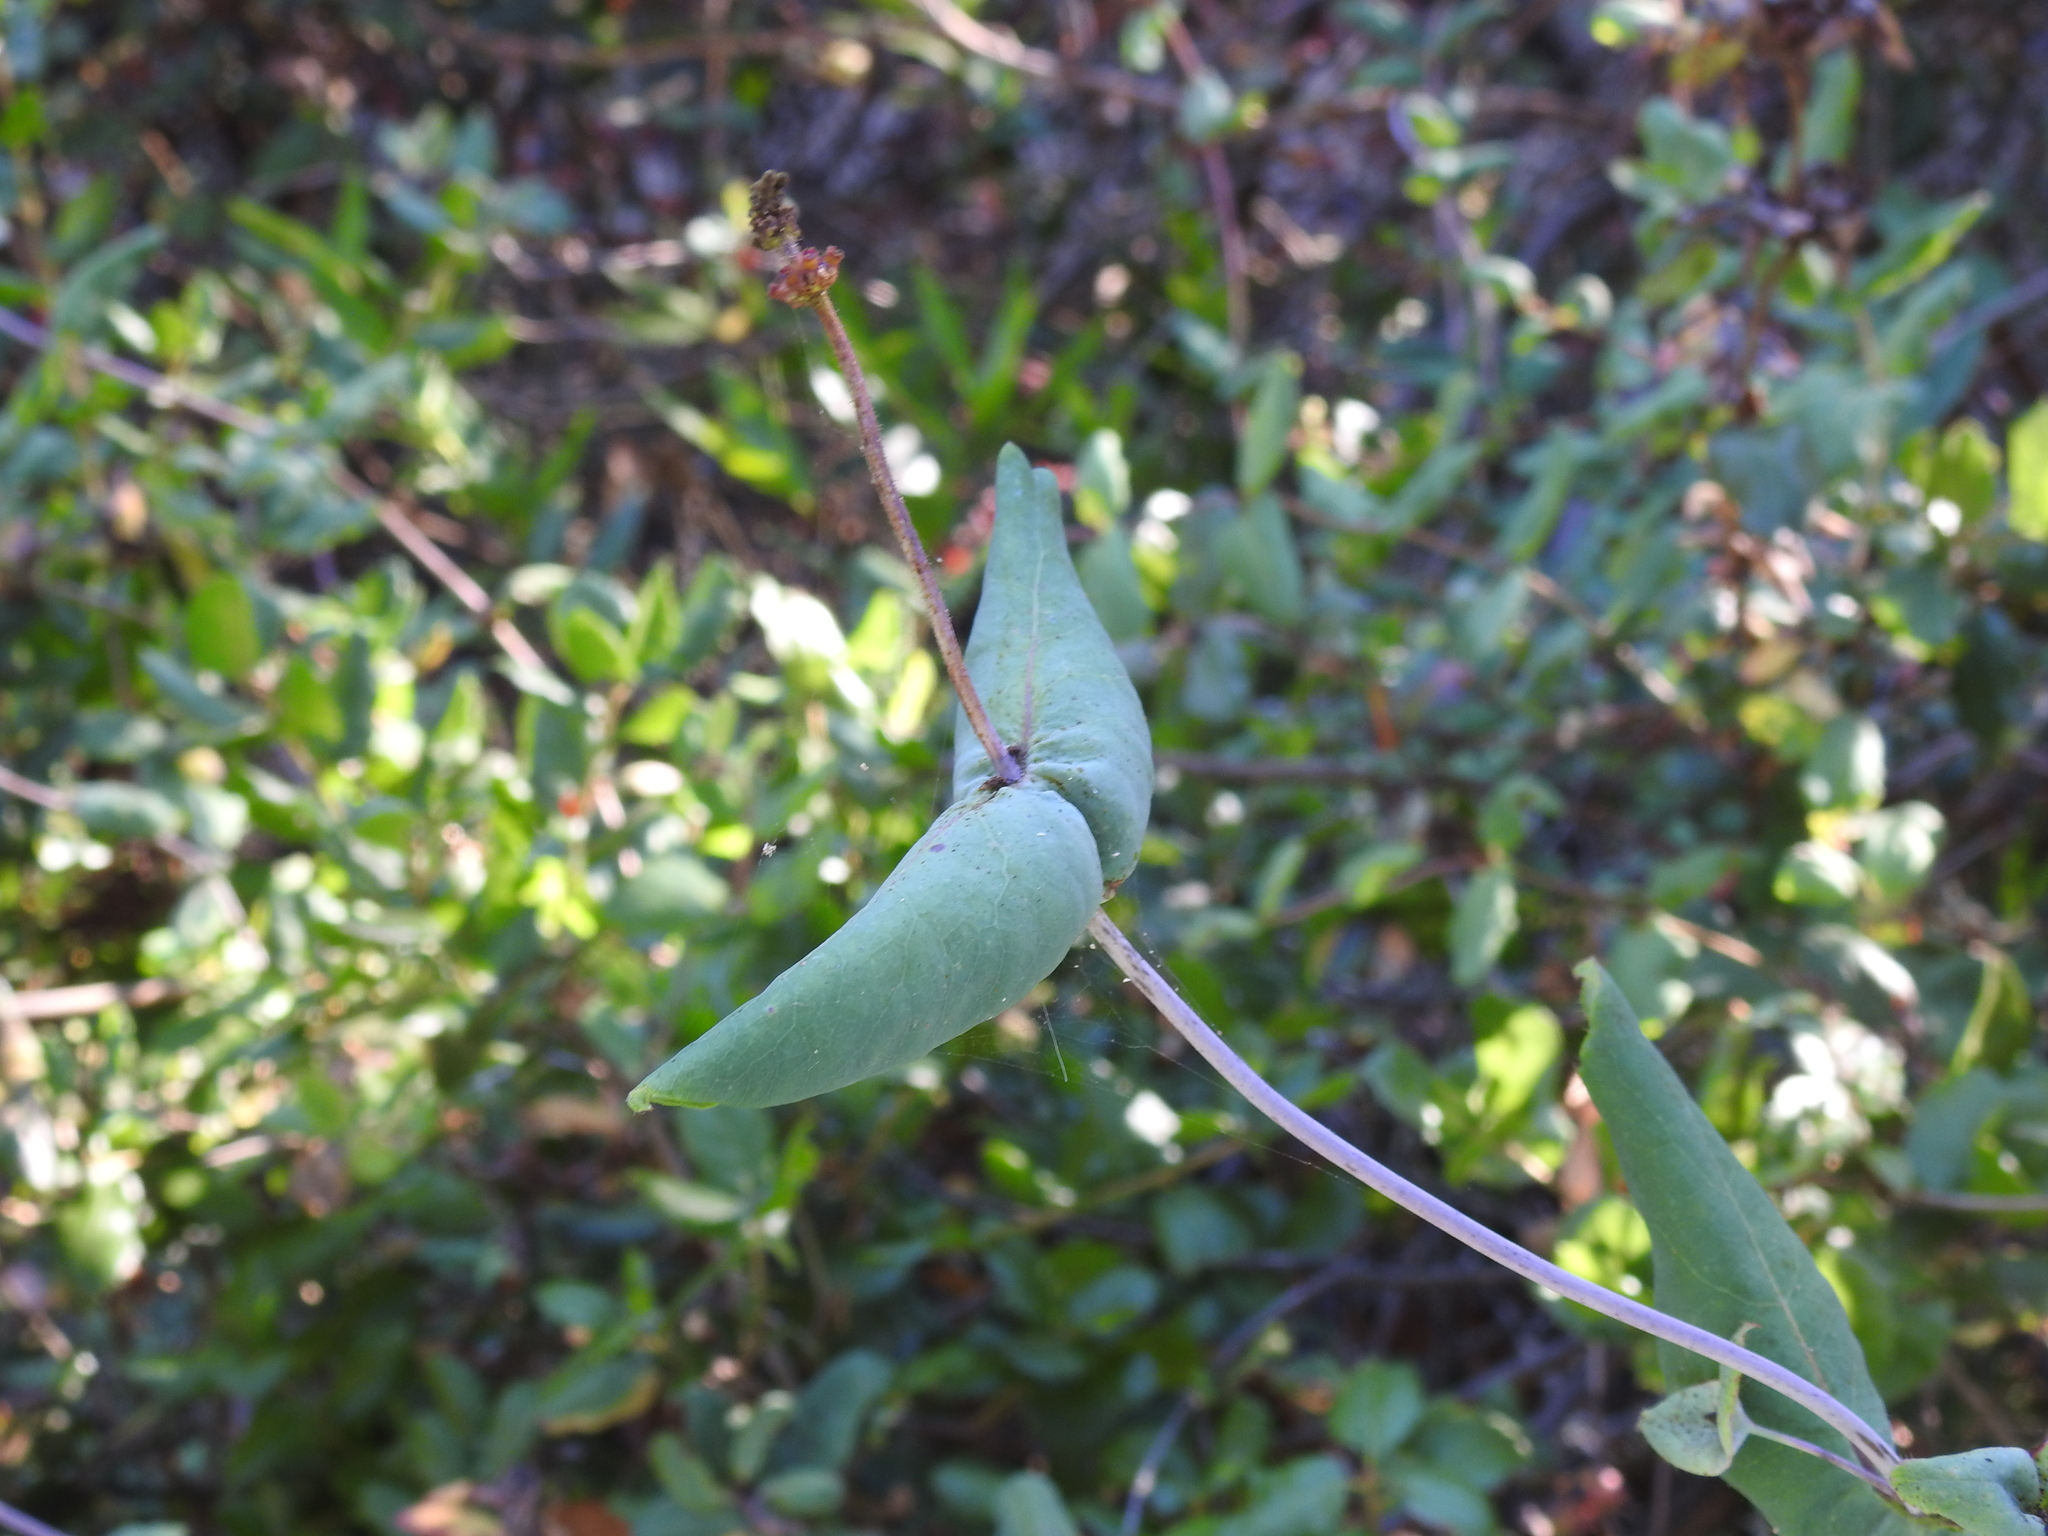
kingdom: Plantae
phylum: Tracheophyta
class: Magnoliopsida
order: Dipsacales
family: Caprifoliaceae
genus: Lonicera
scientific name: Lonicera hispidula
